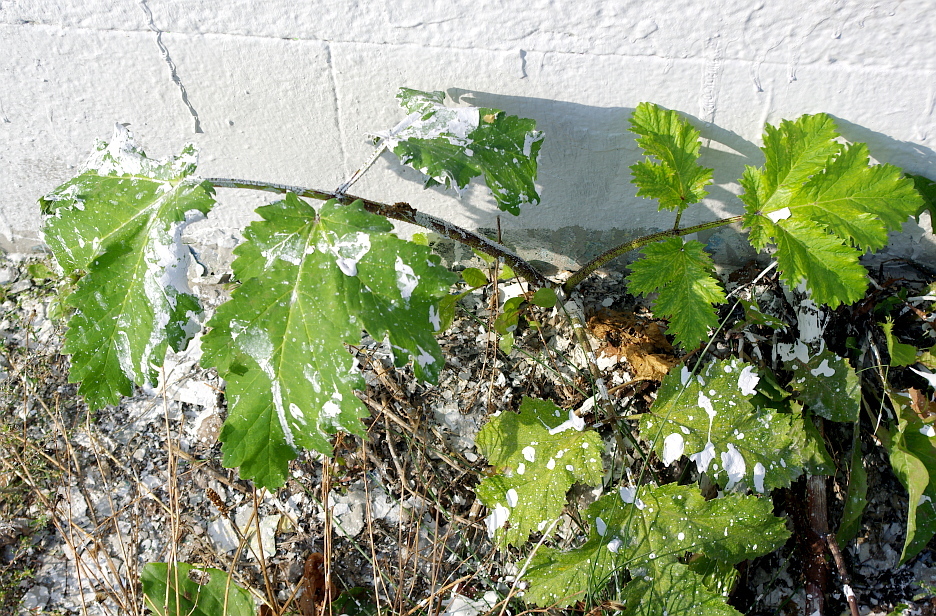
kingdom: Plantae
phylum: Tracheophyta
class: Magnoliopsida
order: Apiales
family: Apiaceae
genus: Heracleum
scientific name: Heracleum sosnowskyi
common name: Sosnowsky's hogweed
